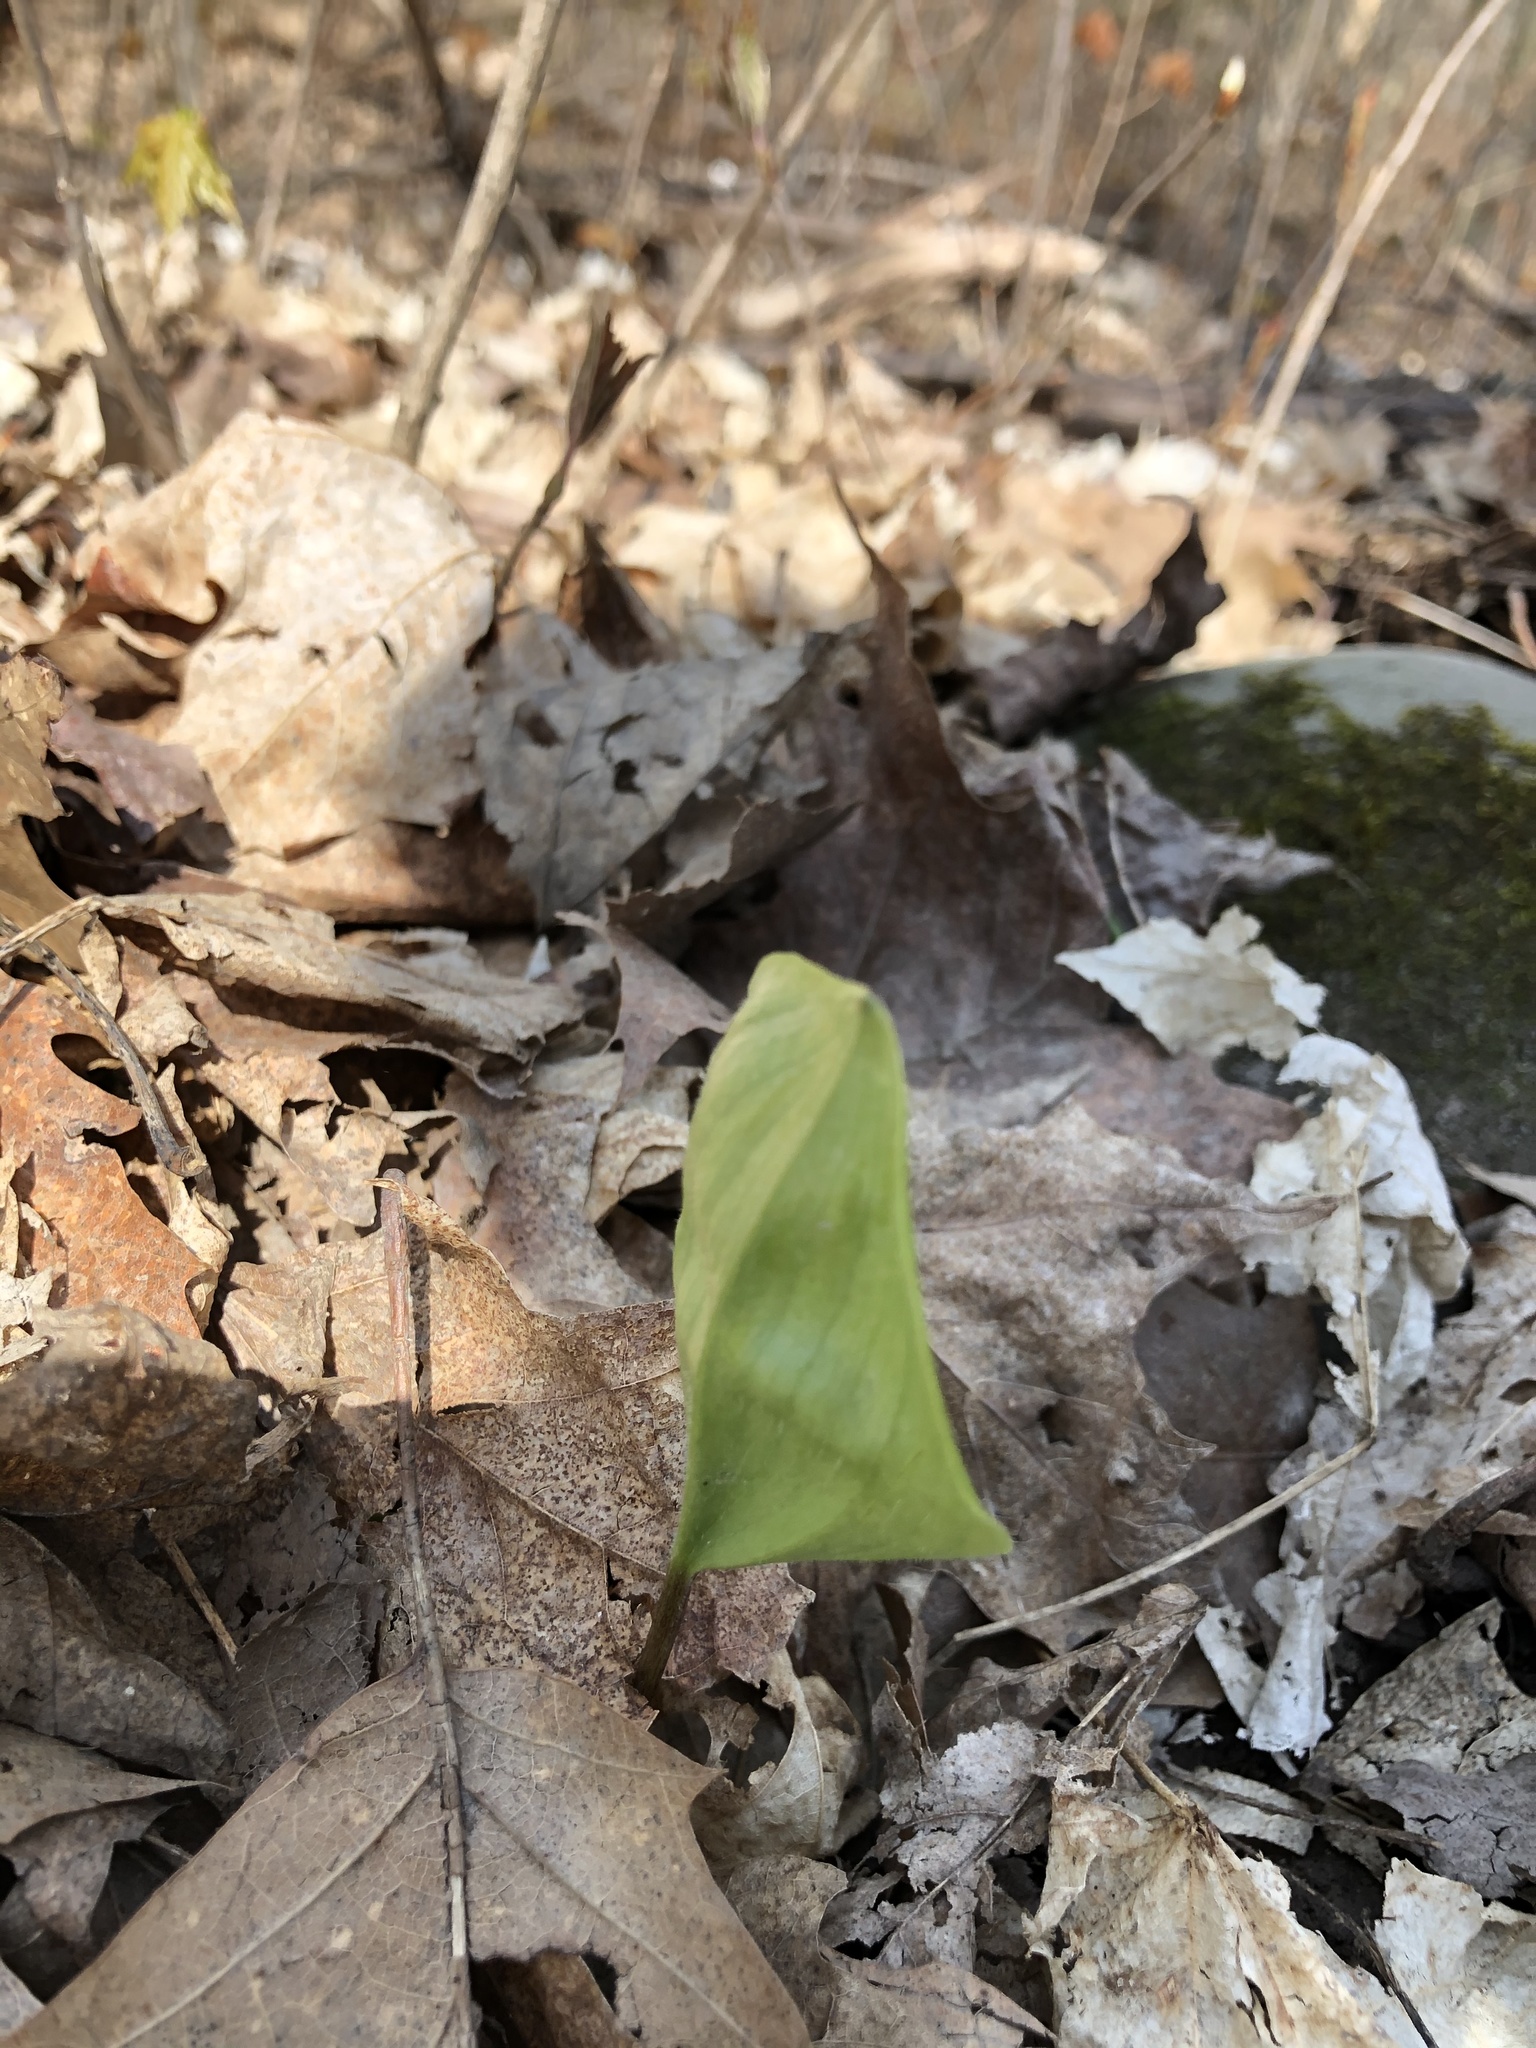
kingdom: Plantae
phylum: Tracheophyta
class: Liliopsida
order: Asparagales
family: Asparagaceae
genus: Maianthemum
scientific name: Maianthemum canadense
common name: False lily-of-the-valley
